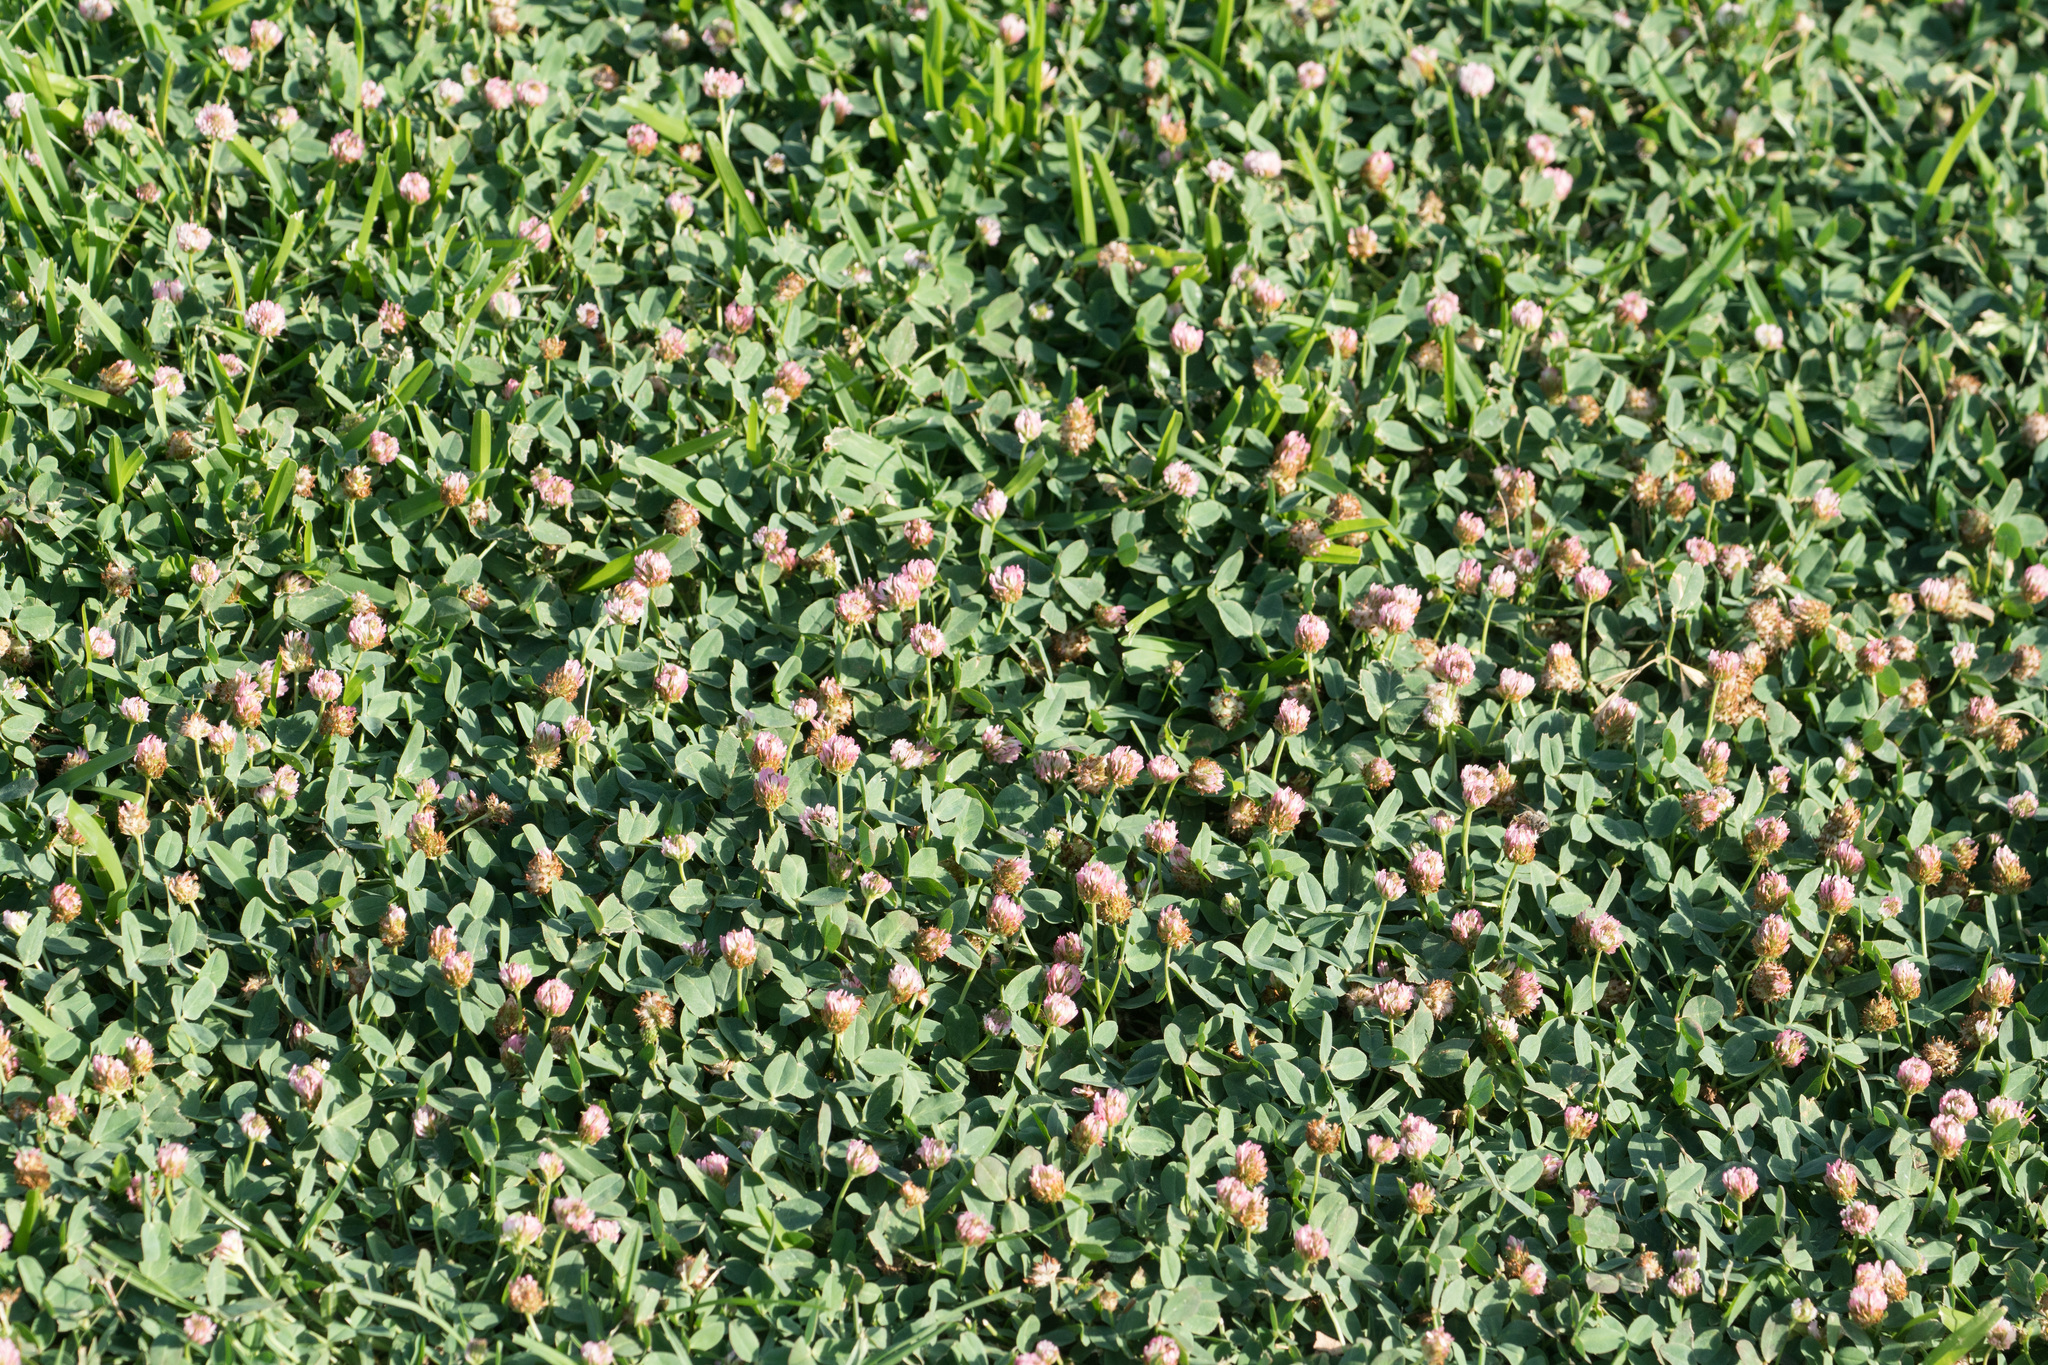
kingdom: Plantae
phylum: Tracheophyta
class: Magnoliopsida
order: Fabales
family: Fabaceae
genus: Trifolium
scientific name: Trifolium fragiferum
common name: Strawberry clover
